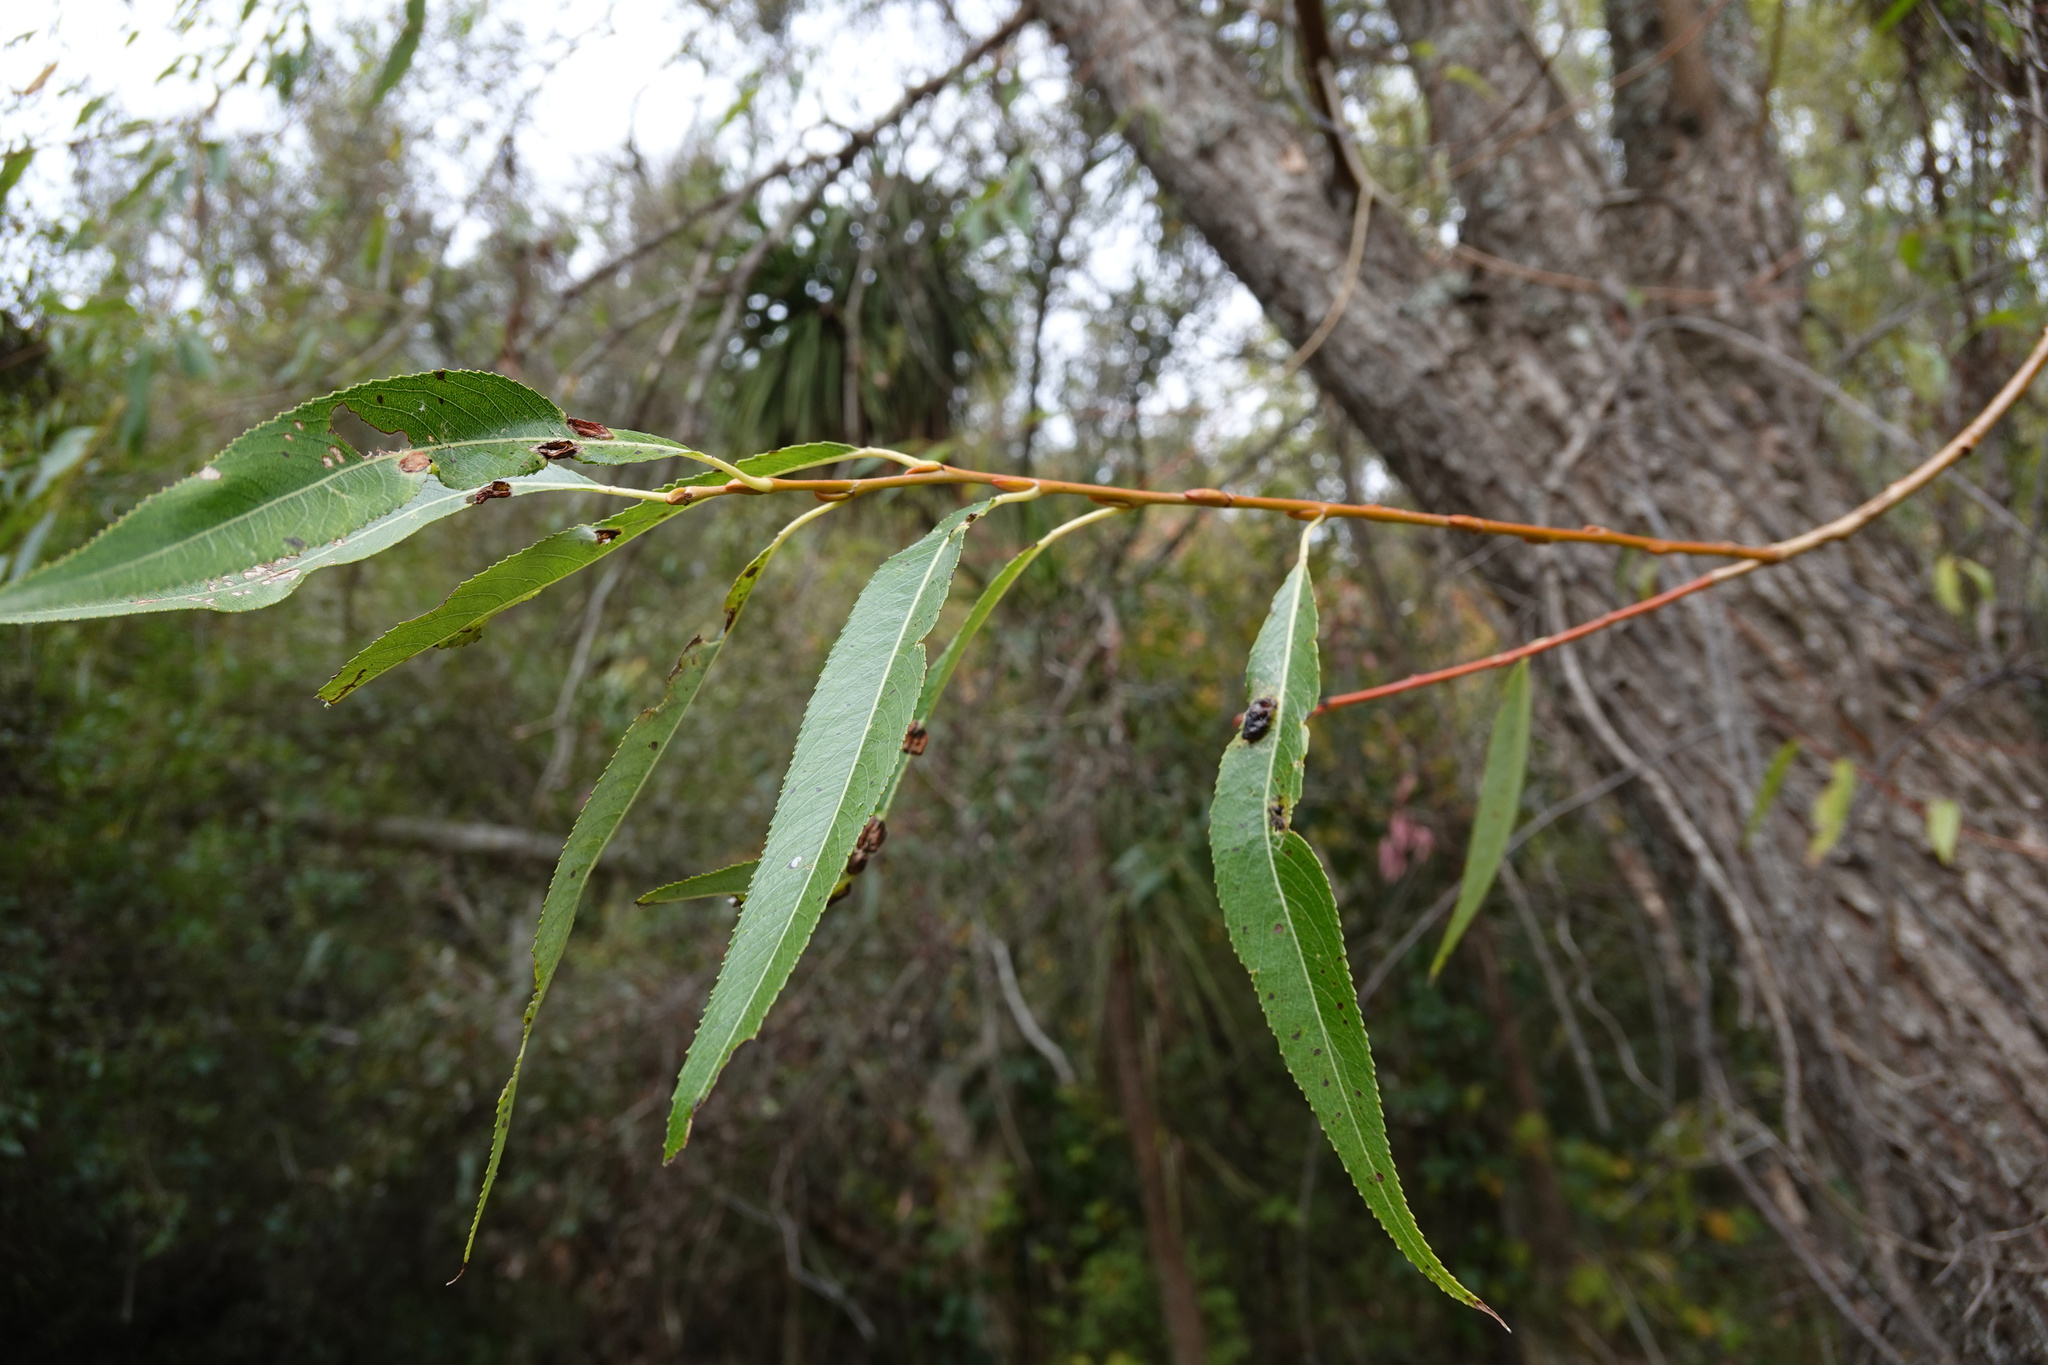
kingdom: Animalia
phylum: Arthropoda
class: Insecta
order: Hymenoptera
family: Tenthredinidae
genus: Pontania
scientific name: Pontania proxima
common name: Common sawfly
